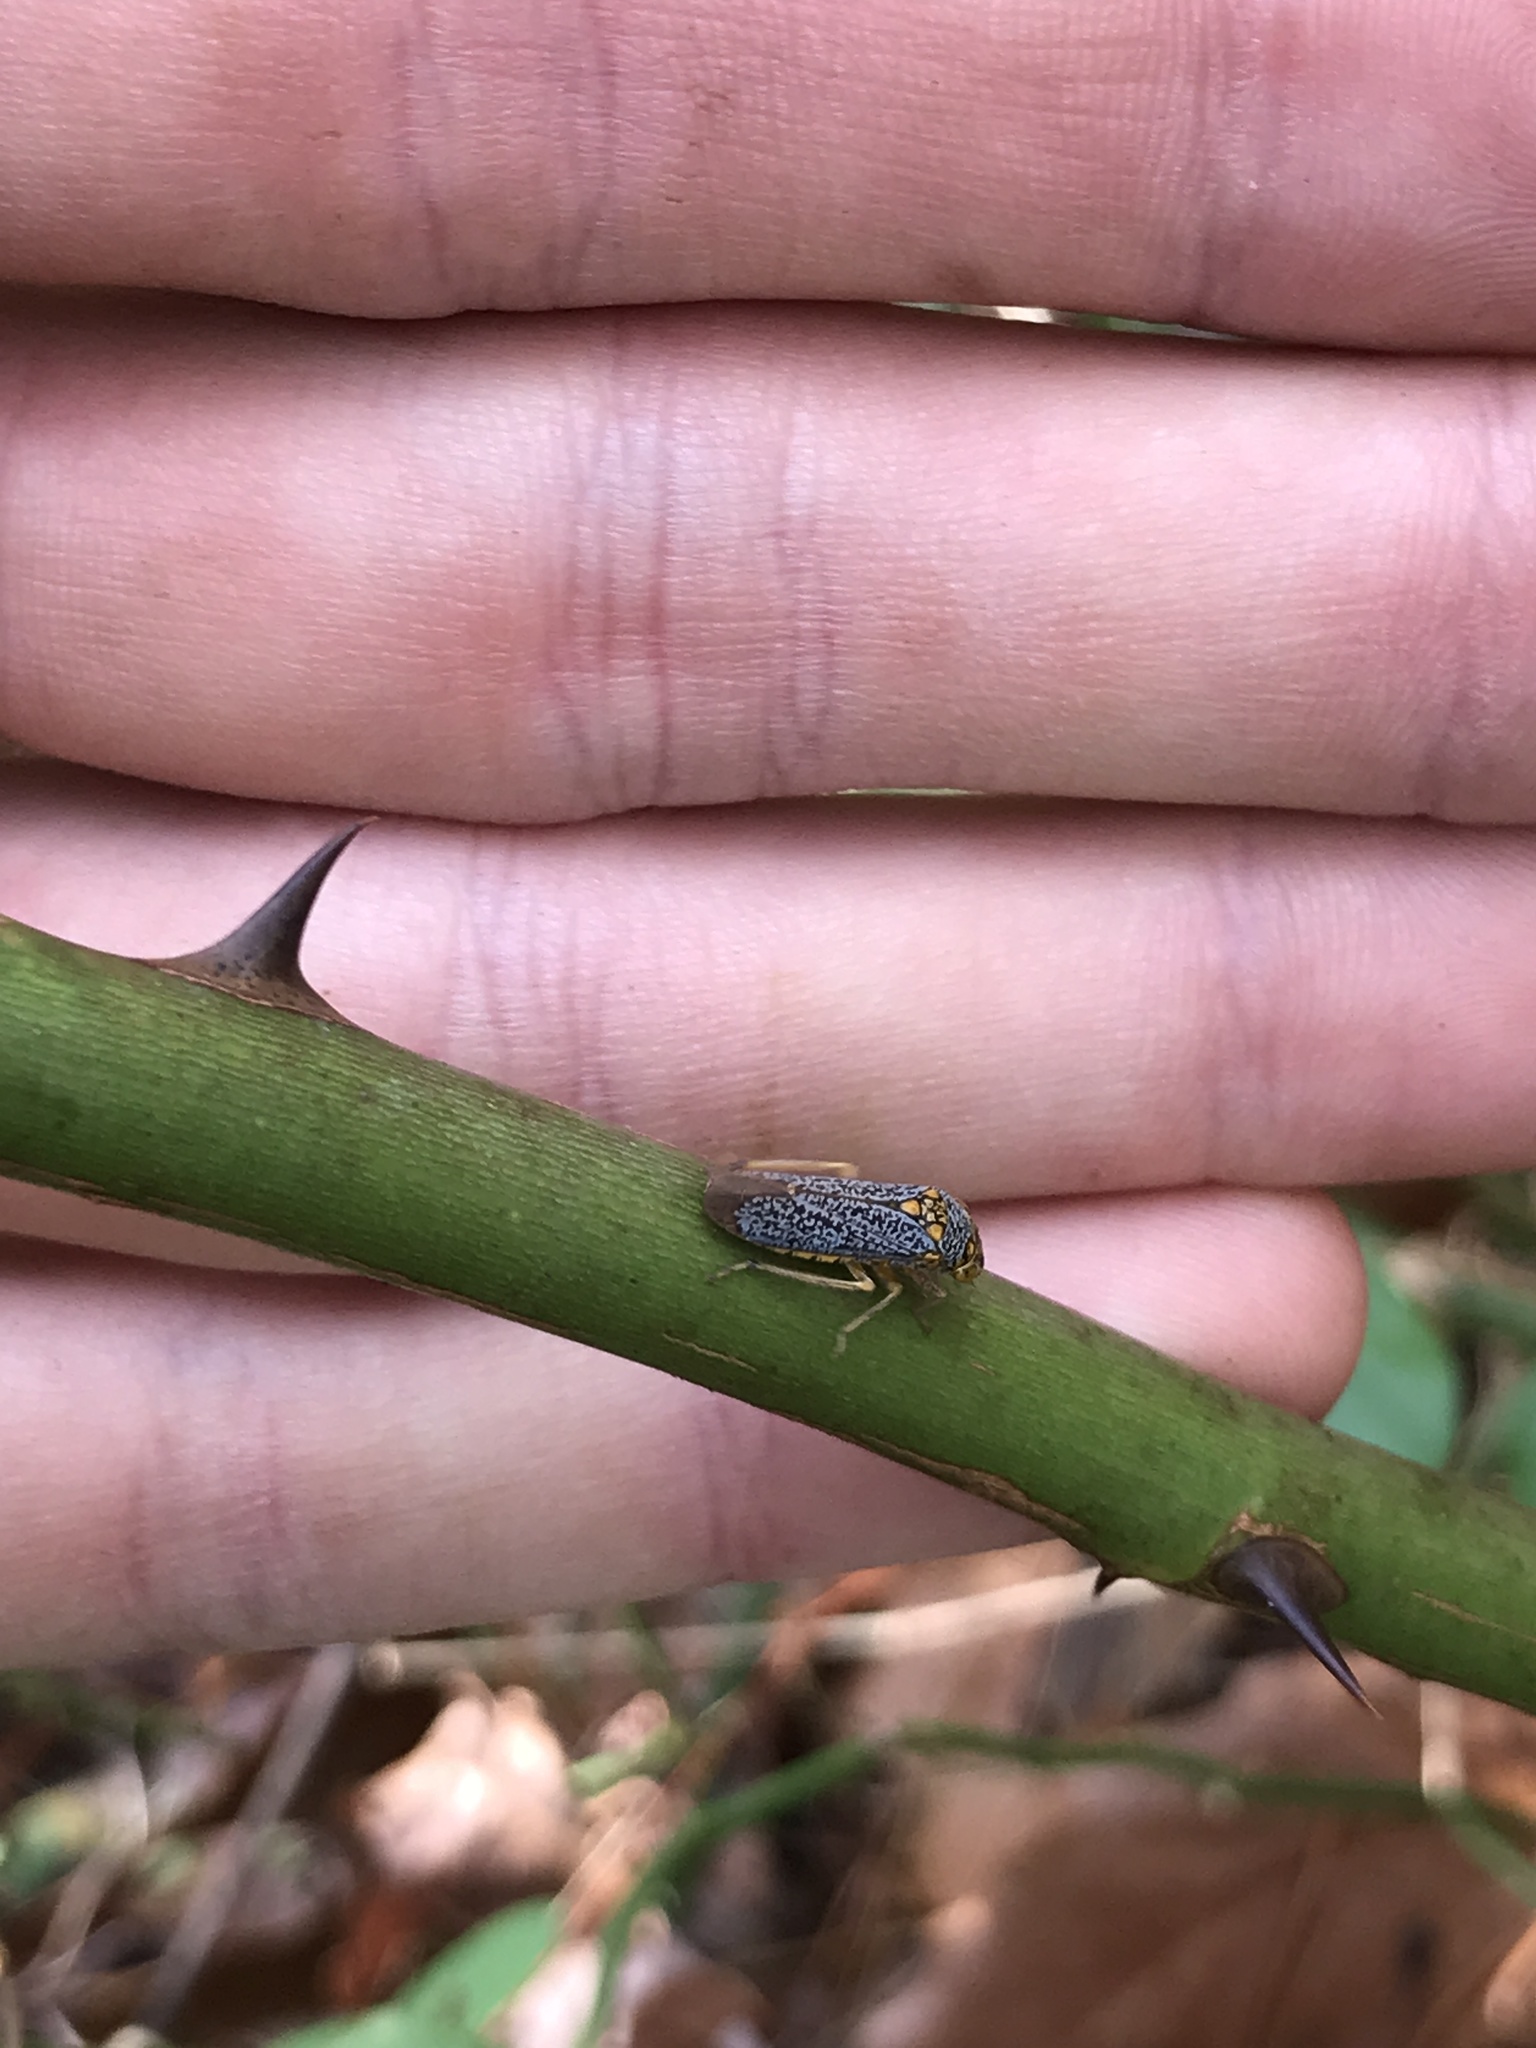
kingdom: Animalia
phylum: Arthropoda
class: Insecta
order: Hemiptera
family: Cicadellidae
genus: Oncometopia
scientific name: Oncometopia orbona
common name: Broad-headed sharpshooter
